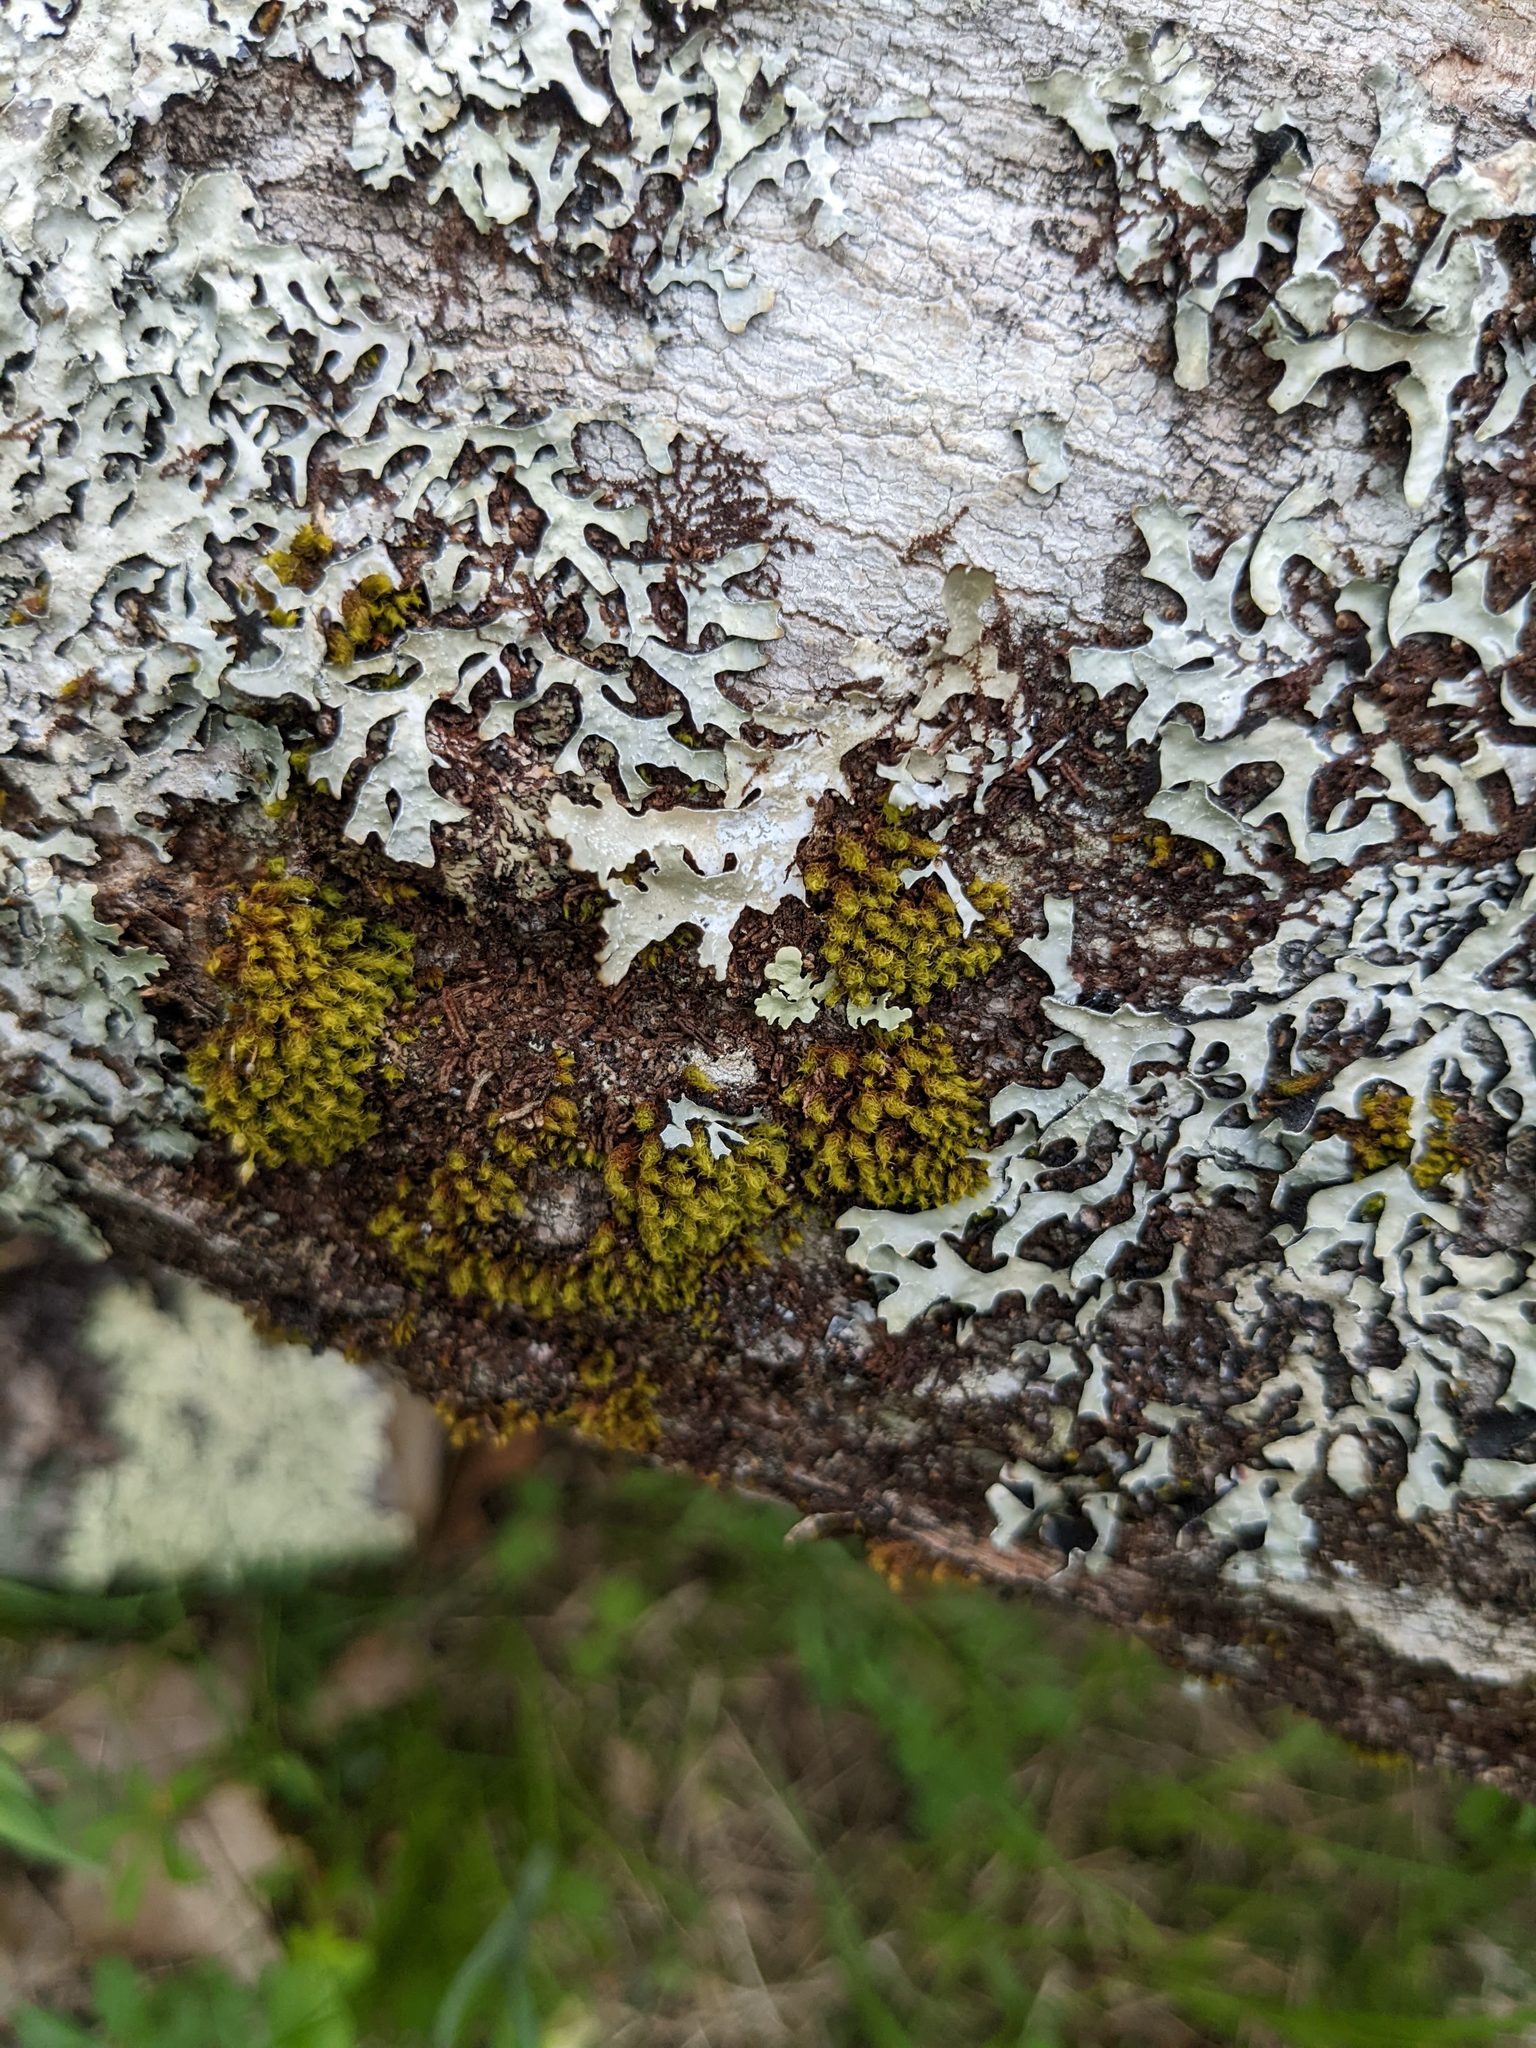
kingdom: Plantae
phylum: Bryophyta
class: Bryopsida
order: Orthotrichales
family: Orthotrichaceae
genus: Ulota
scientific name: Ulota crispa
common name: Crisped pincushion moss
